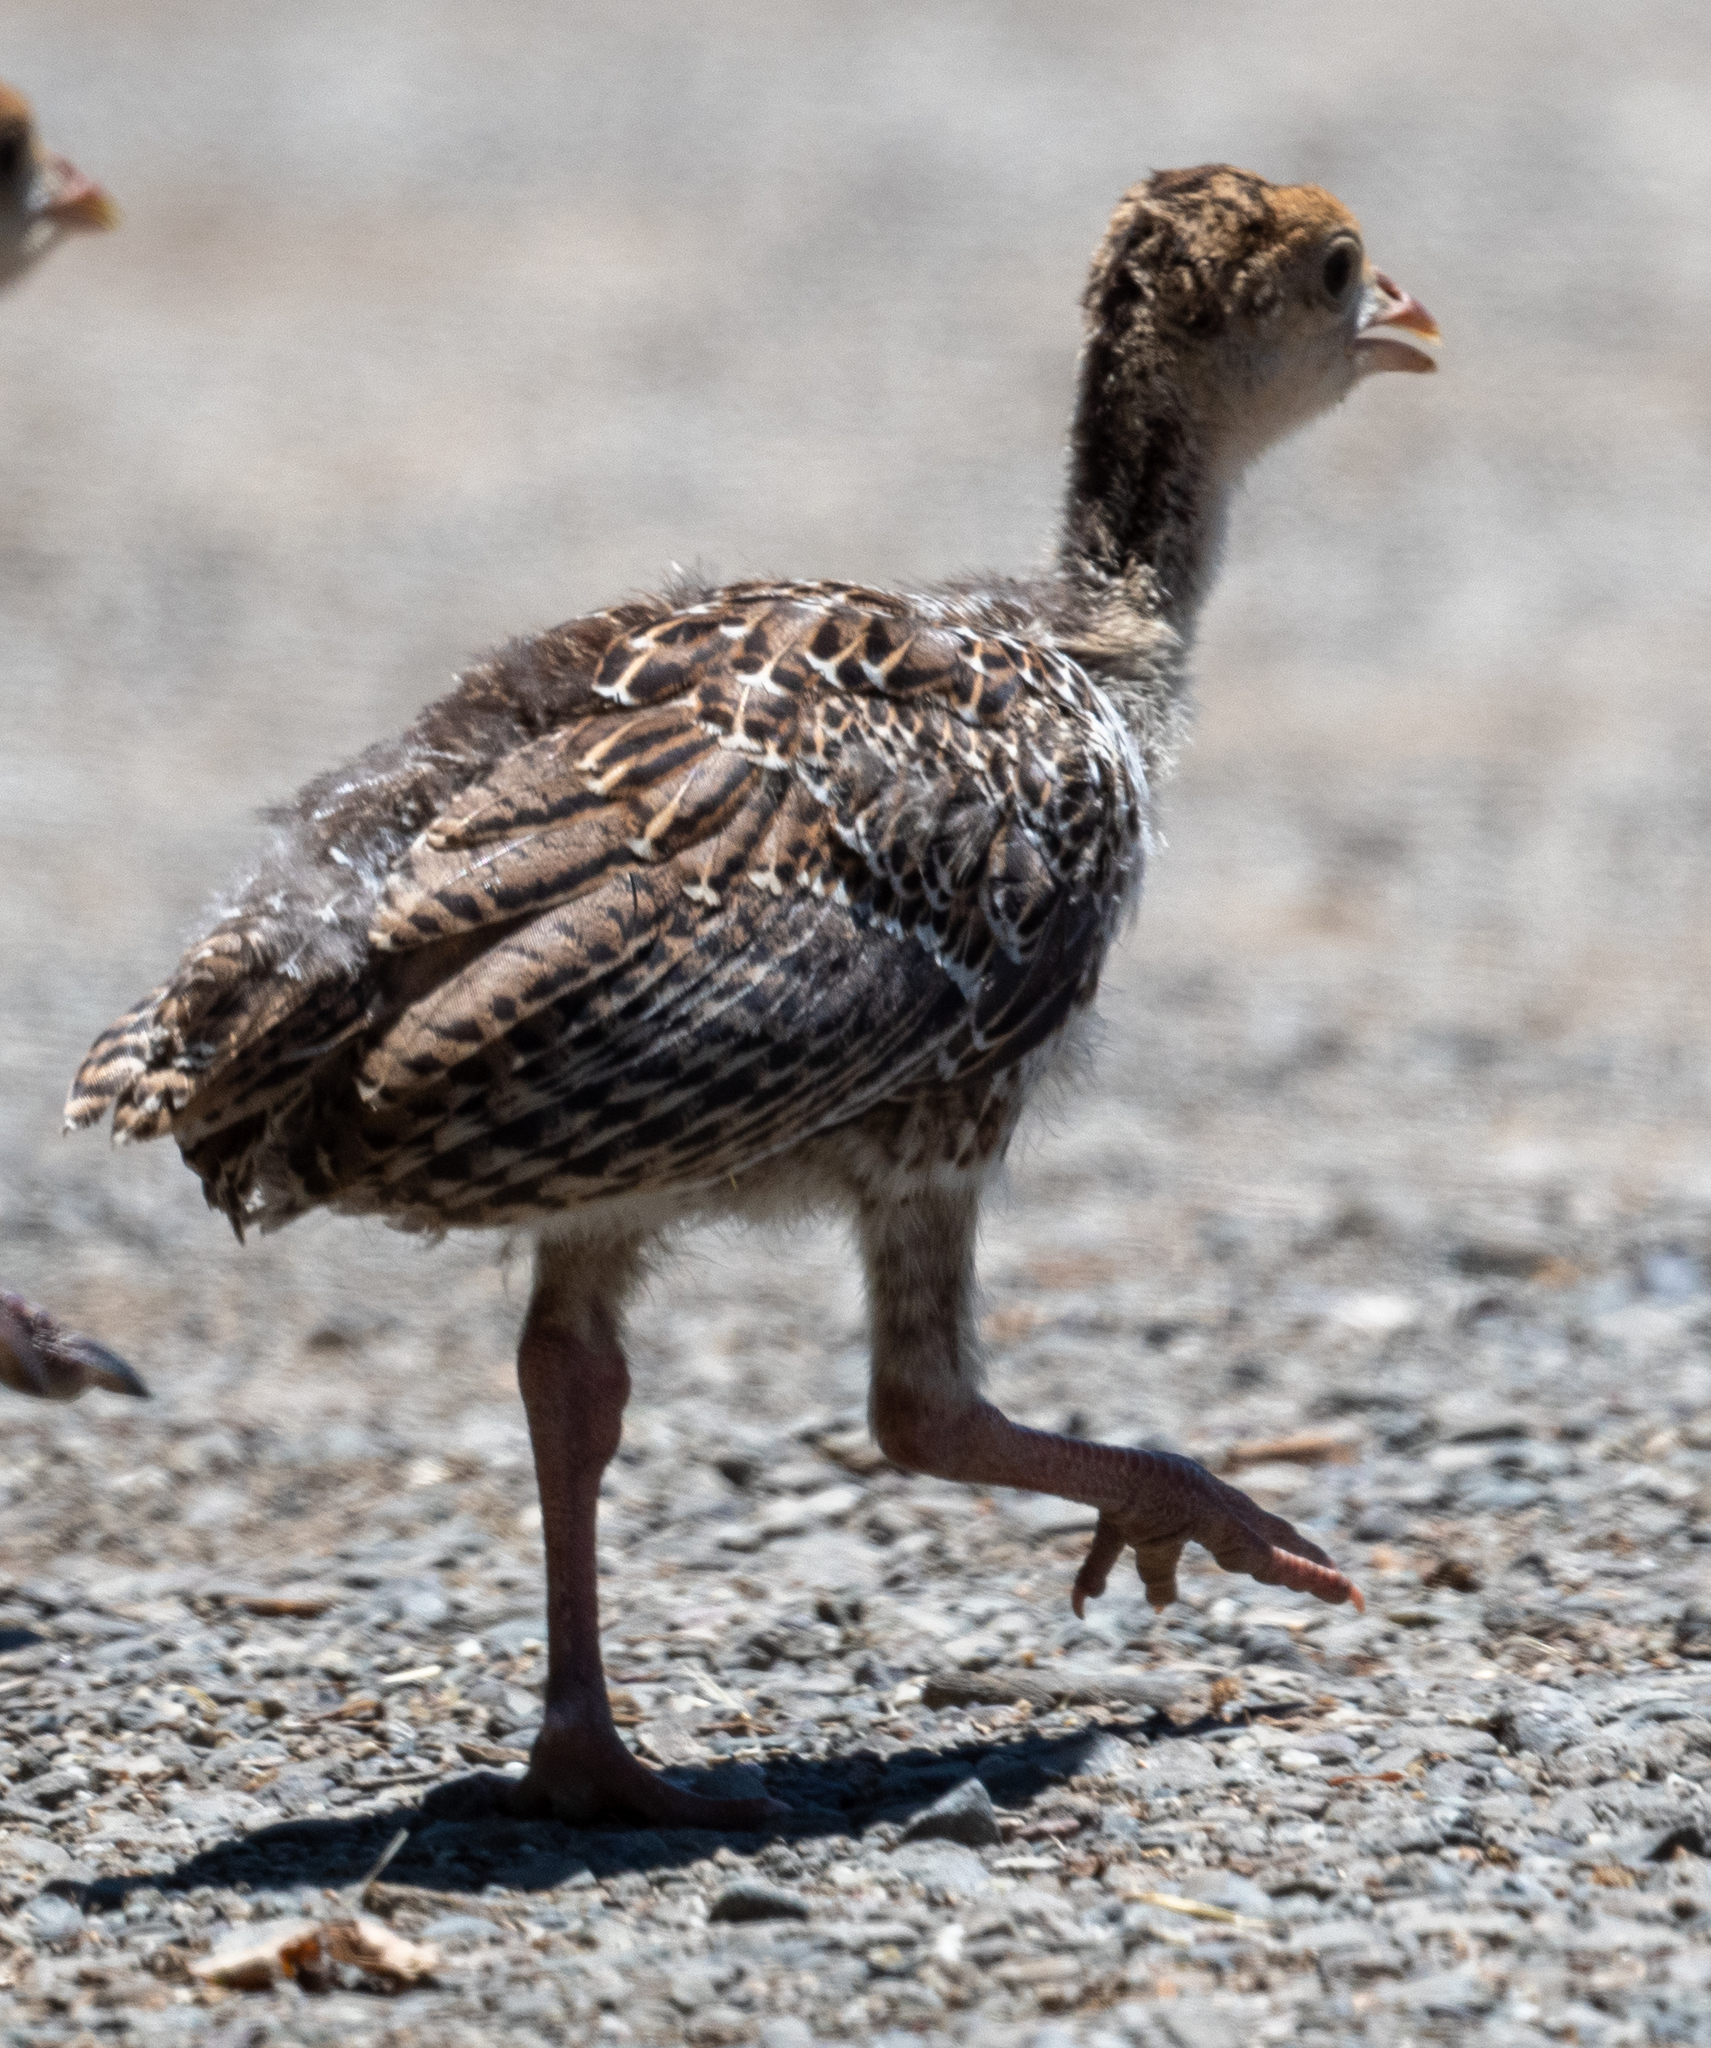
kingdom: Animalia
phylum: Chordata
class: Aves
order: Galliformes
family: Phasianidae
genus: Meleagris
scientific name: Meleagris gallopavo
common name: Wild turkey
